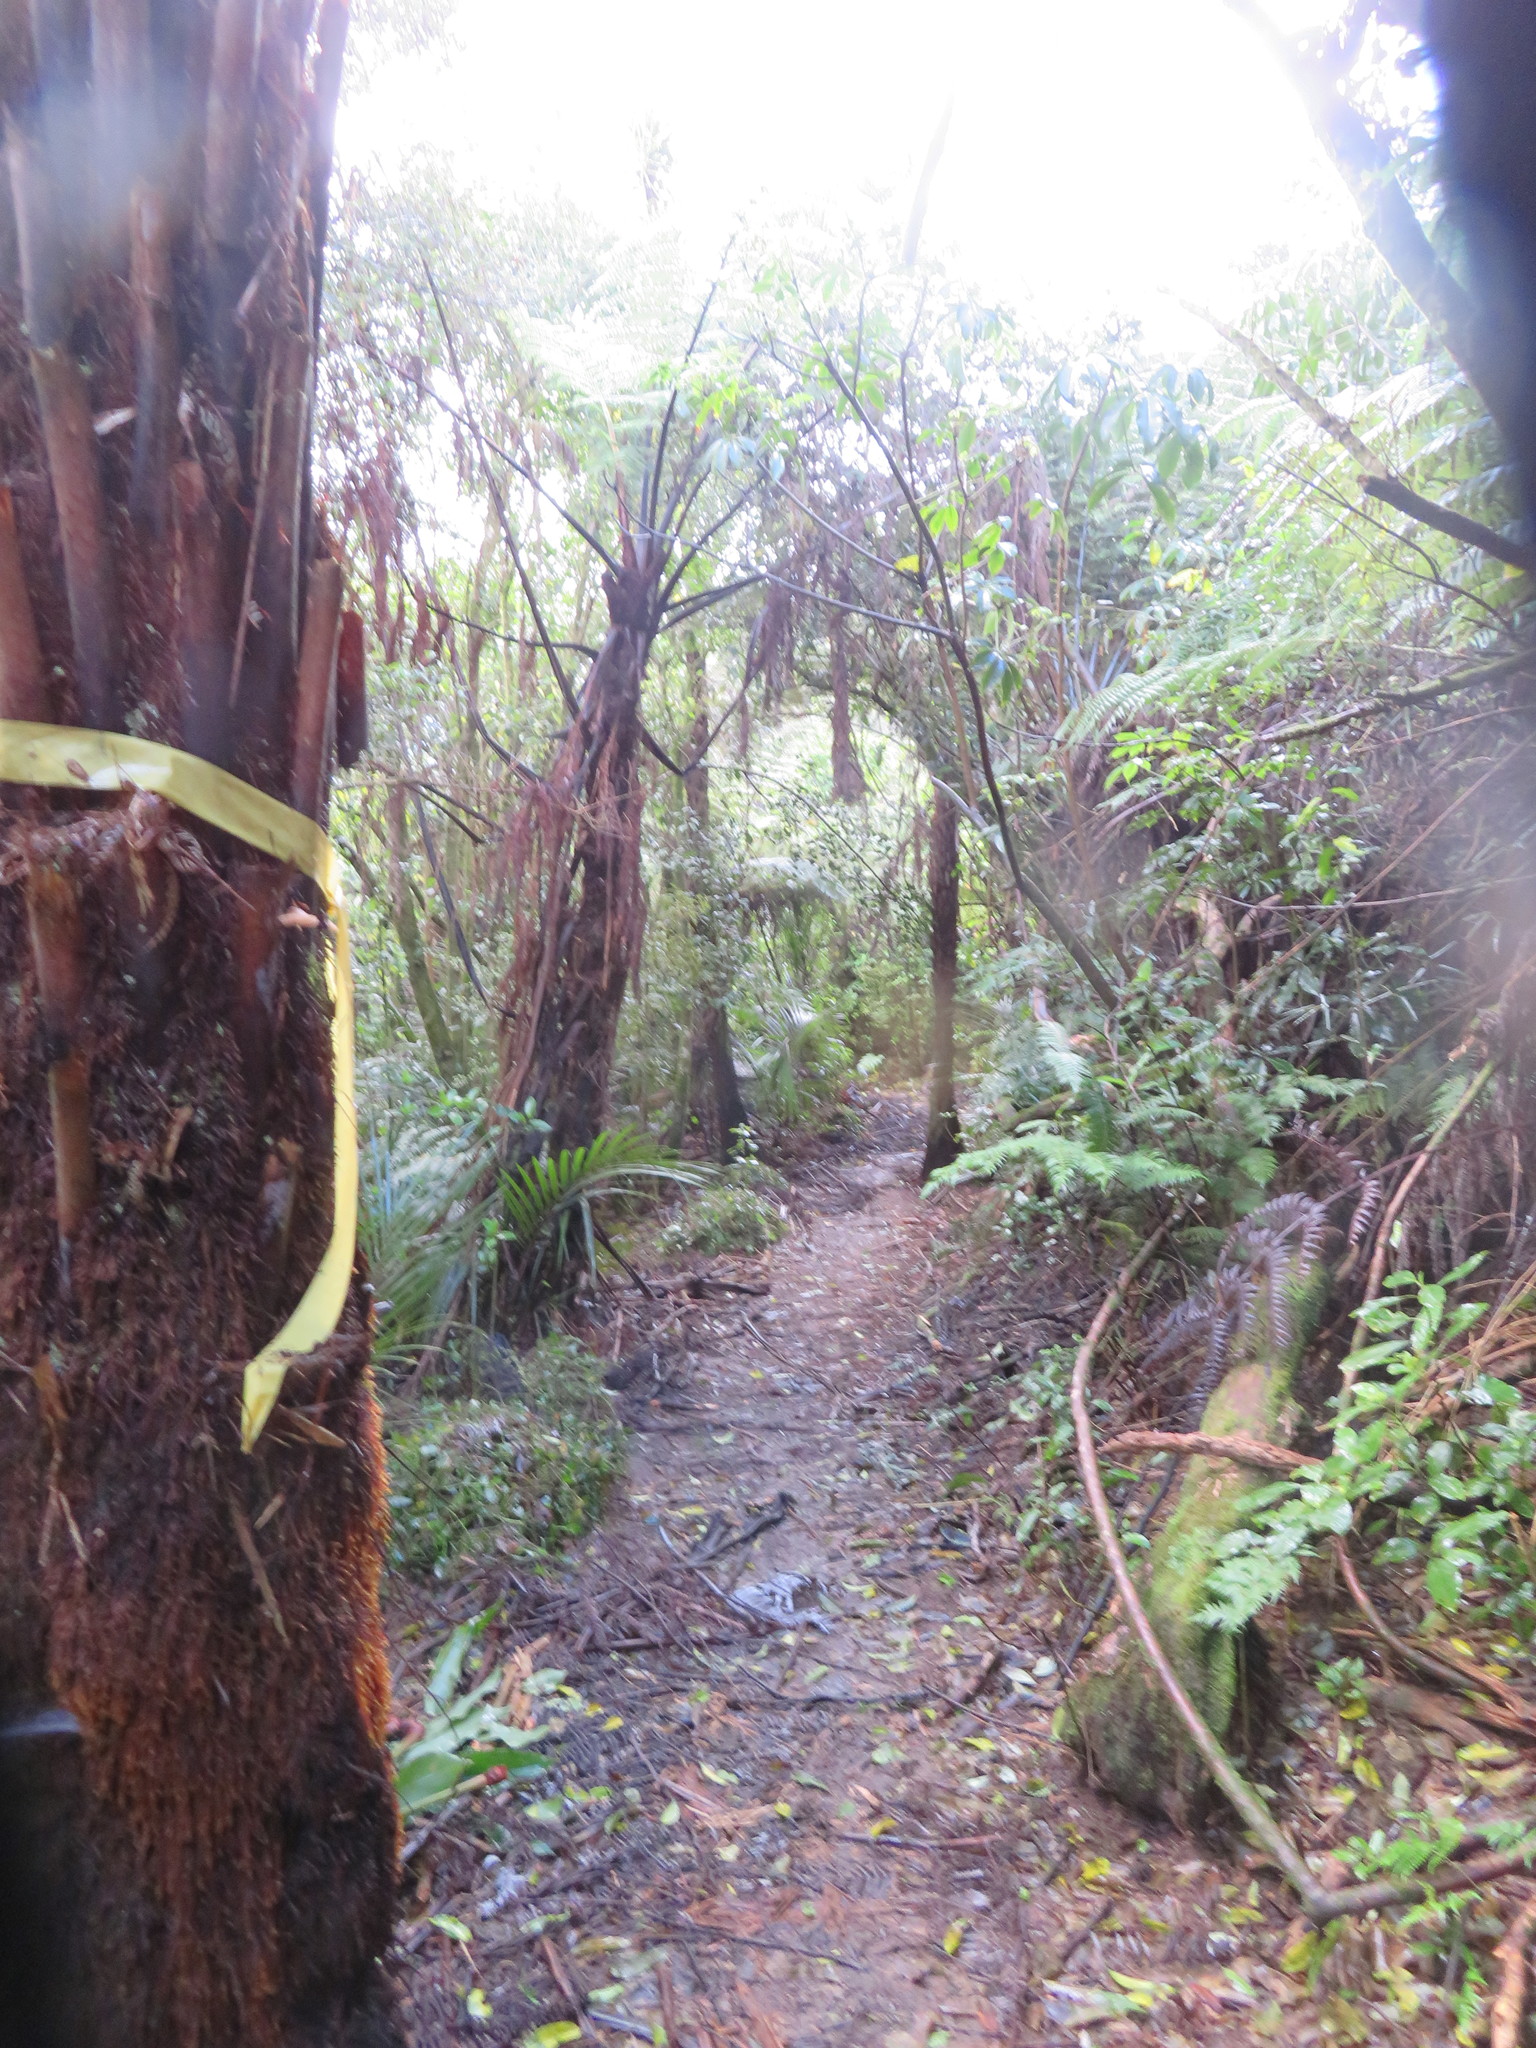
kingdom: Plantae
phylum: Tracheophyta
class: Liliopsida
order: Commelinales
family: Commelinaceae
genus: Tradescantia
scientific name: Tradescantia fluminensis
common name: Wandering-jew
